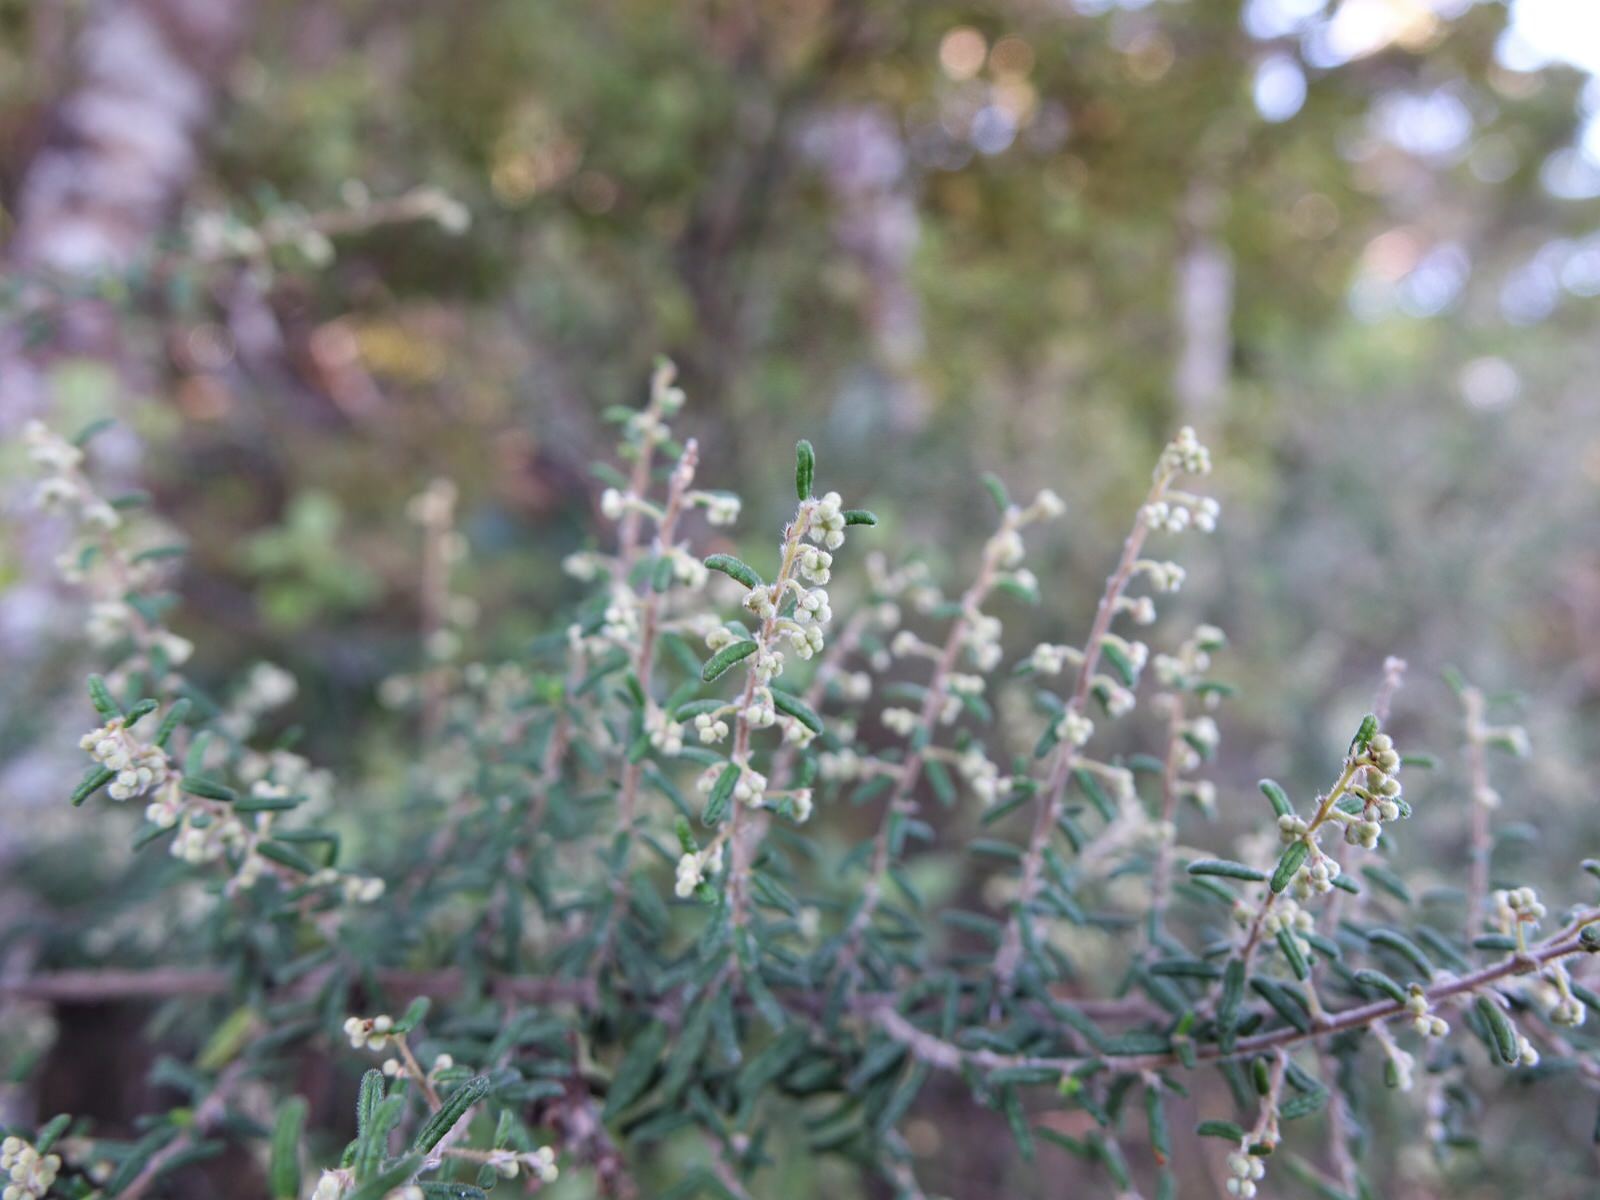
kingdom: Plantae
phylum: Tracheophyta
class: Magnoliopsida
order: Rosales
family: Rhamnaceae
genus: Pomaderris
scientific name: Pomaderris amoena
